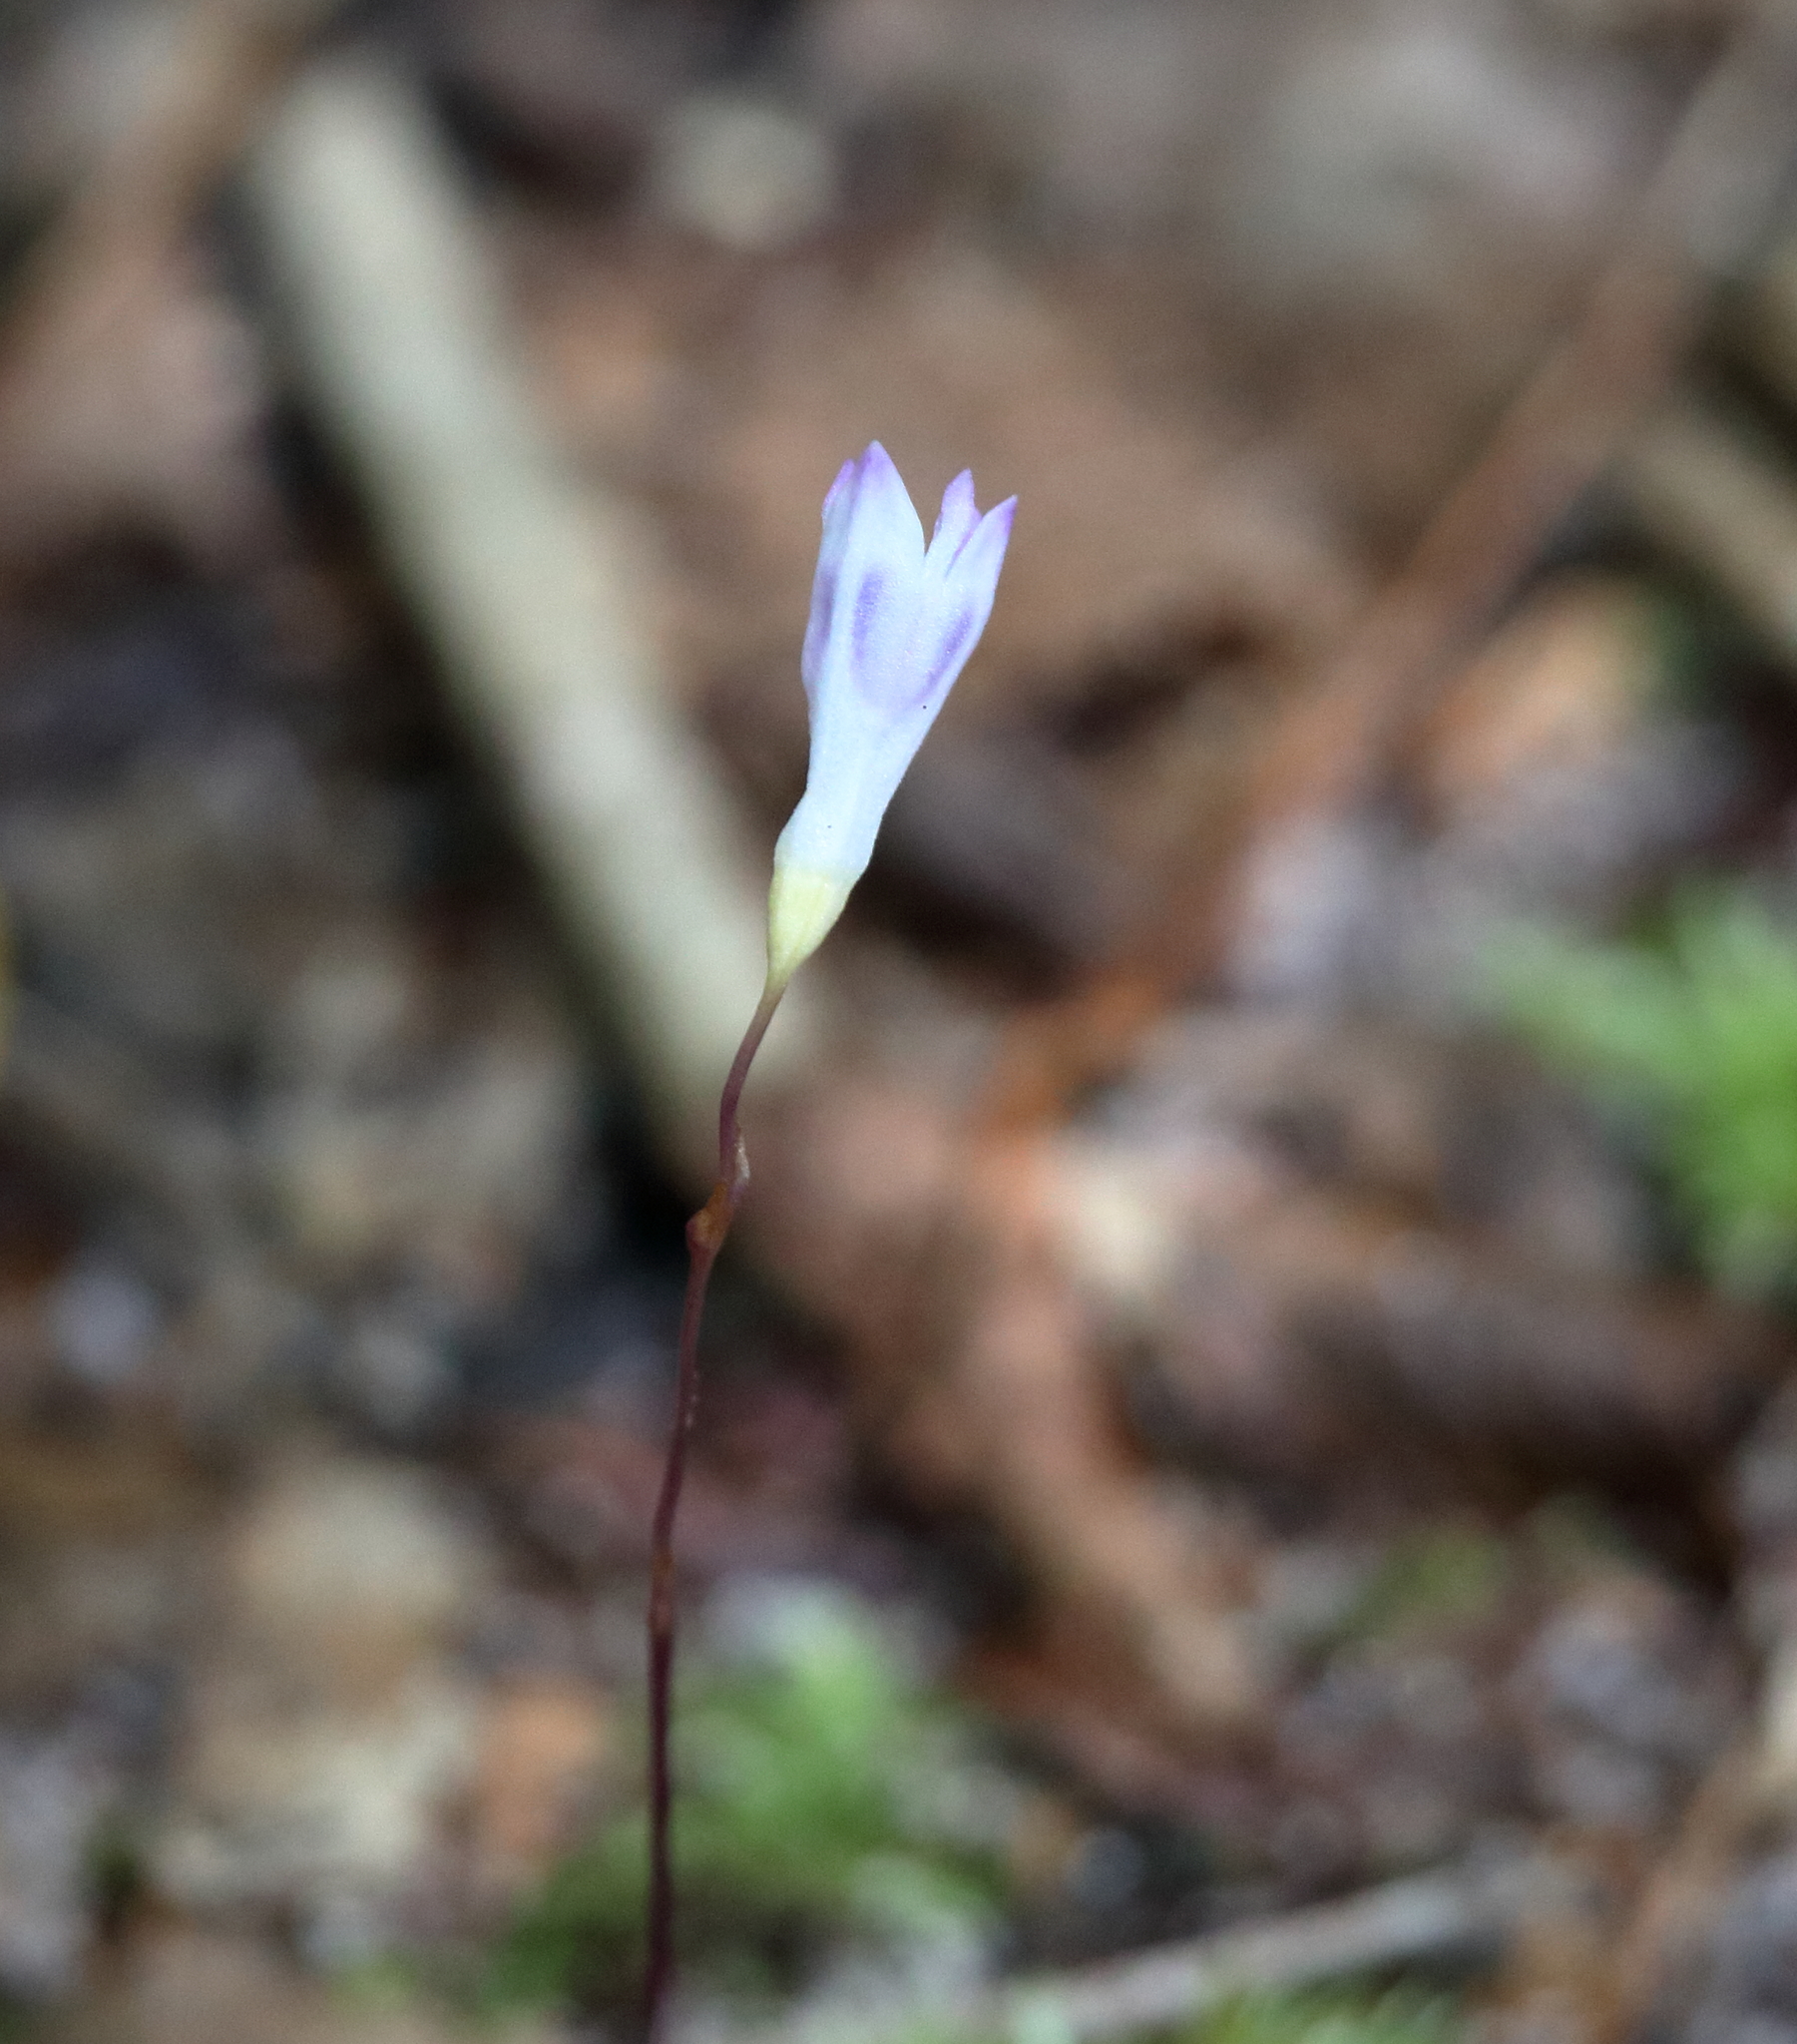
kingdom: Plantae
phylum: Tracheophyta
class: Liliopsida
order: Dioscoreales
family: Burmanniaceae
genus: Apteria
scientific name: Apteria aphylla
